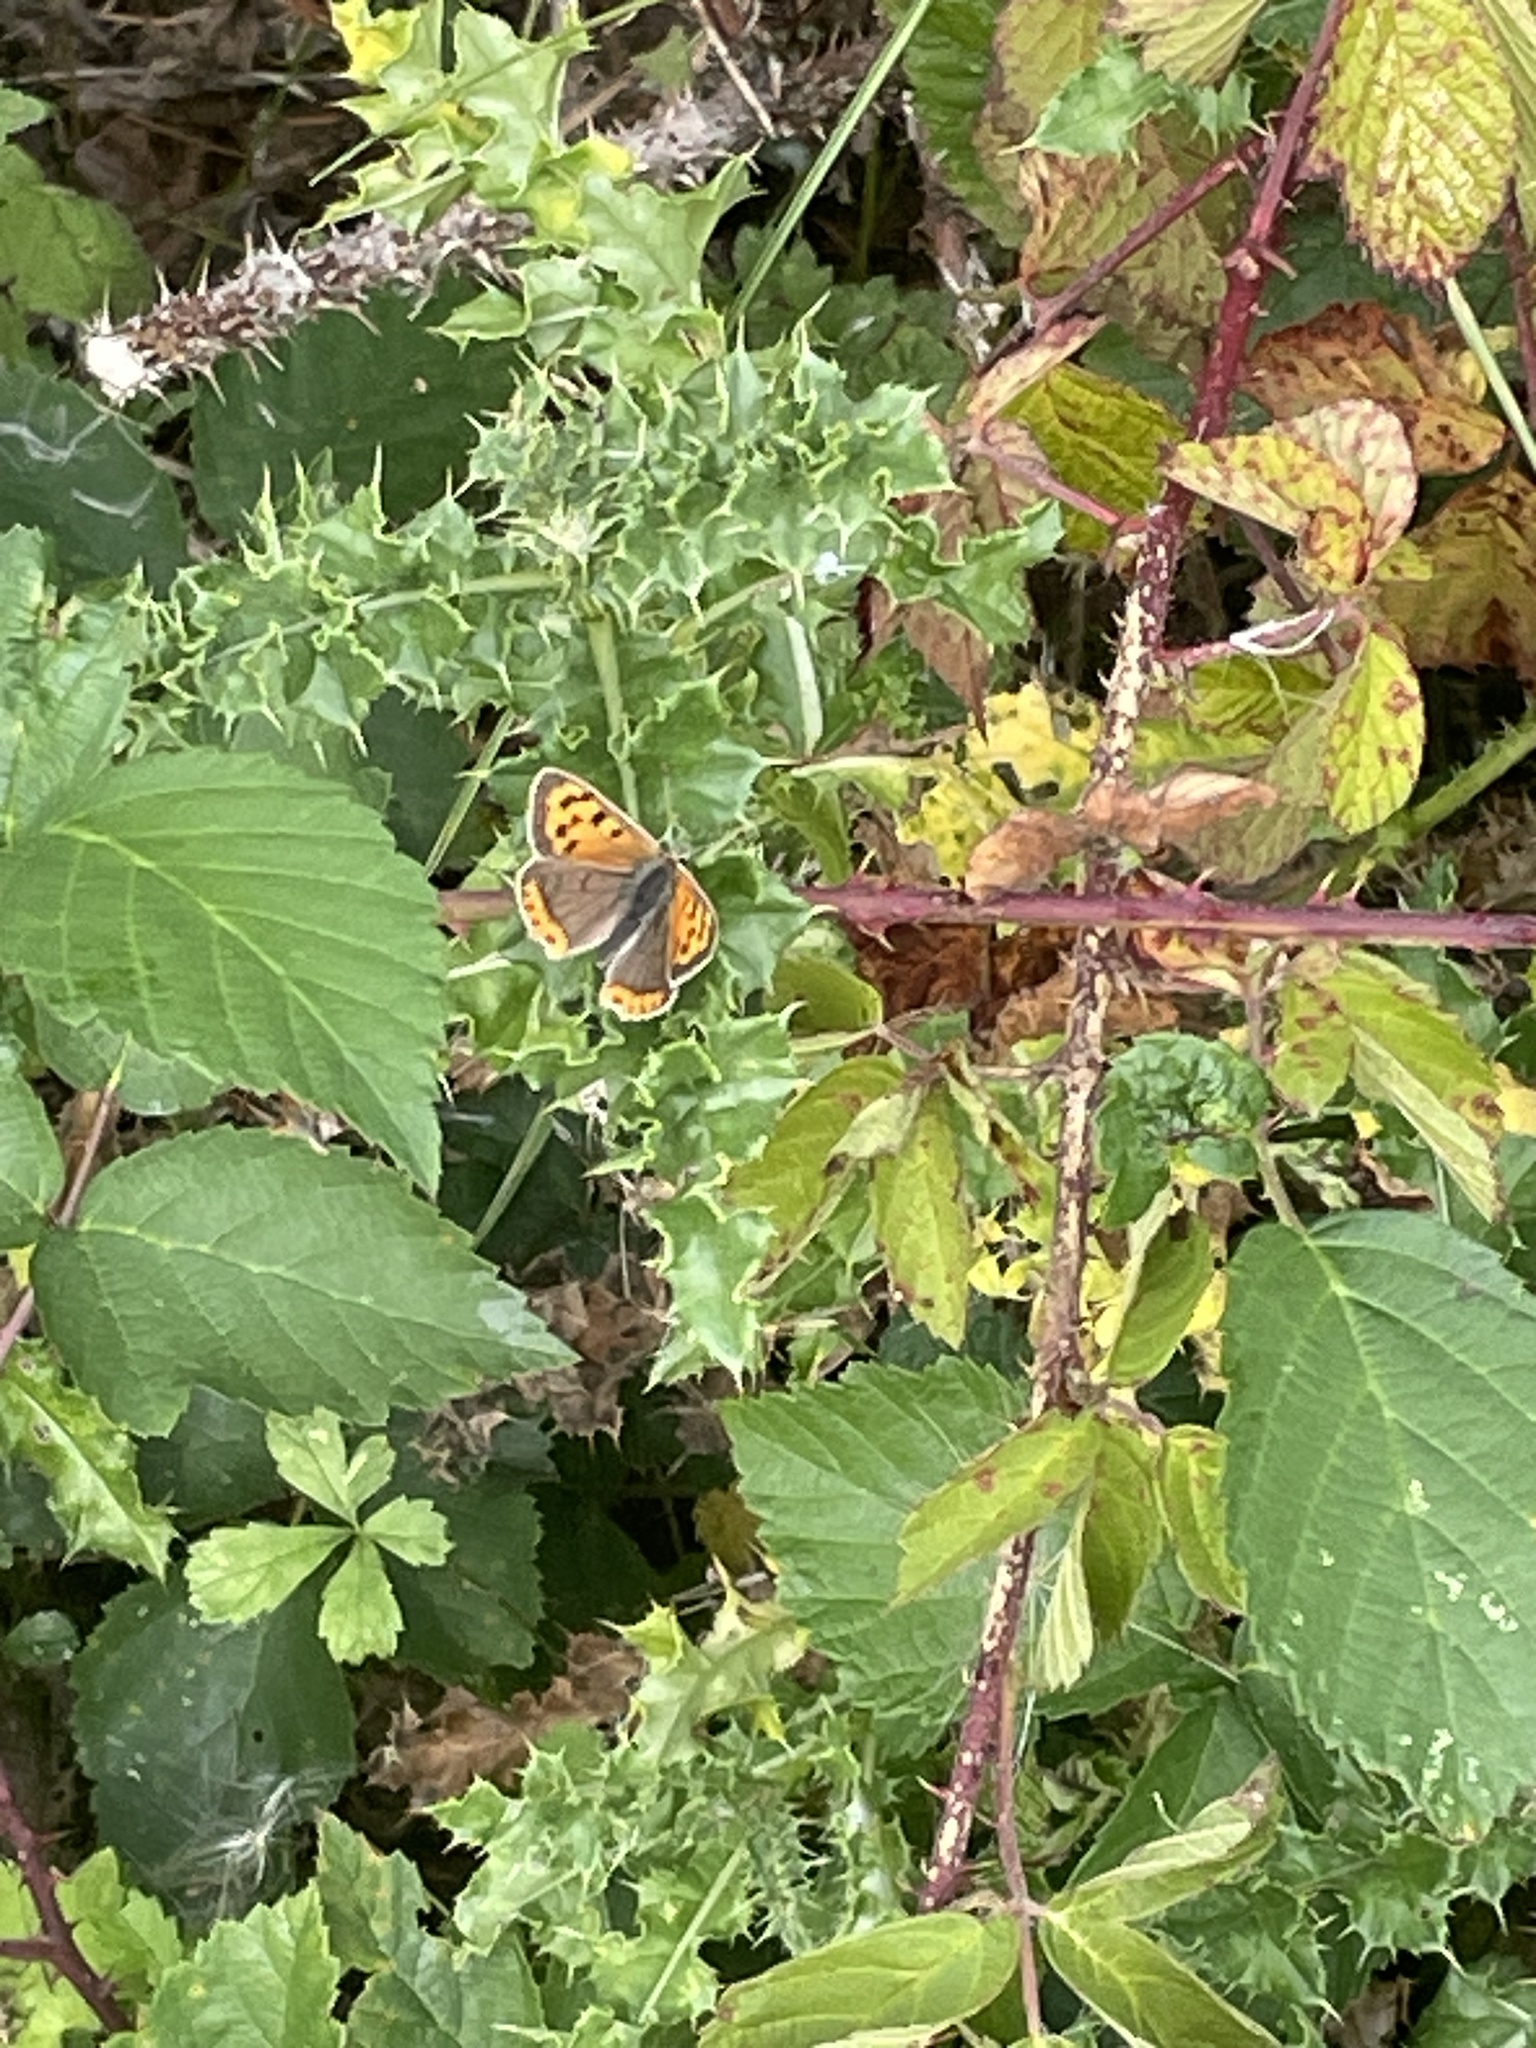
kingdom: Animalia
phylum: Arthropoda
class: Insecta
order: Lepidoptera
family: Lycaenidae
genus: Lycaena
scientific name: Lycaena phlaeas
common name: Small copper
